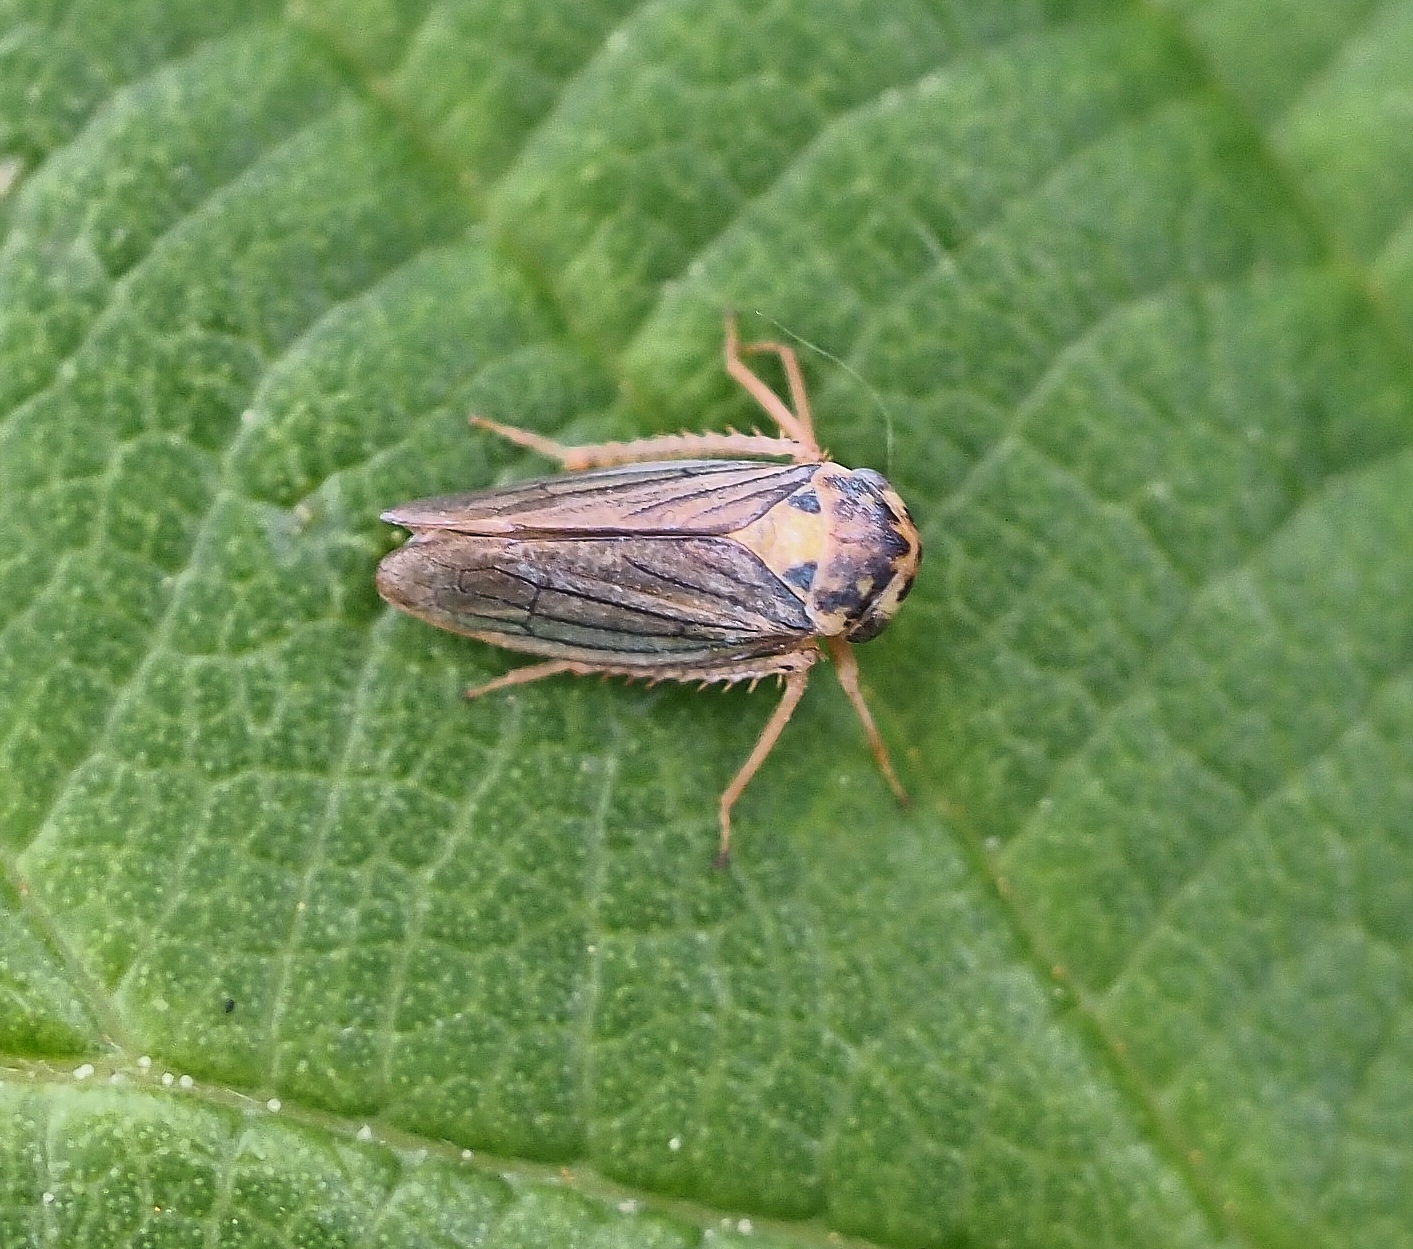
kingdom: Animalia
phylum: Arthropoda
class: Insecta
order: Hemiptera
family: Cicadellidae
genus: Macropsis
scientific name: Macropsis scotti
